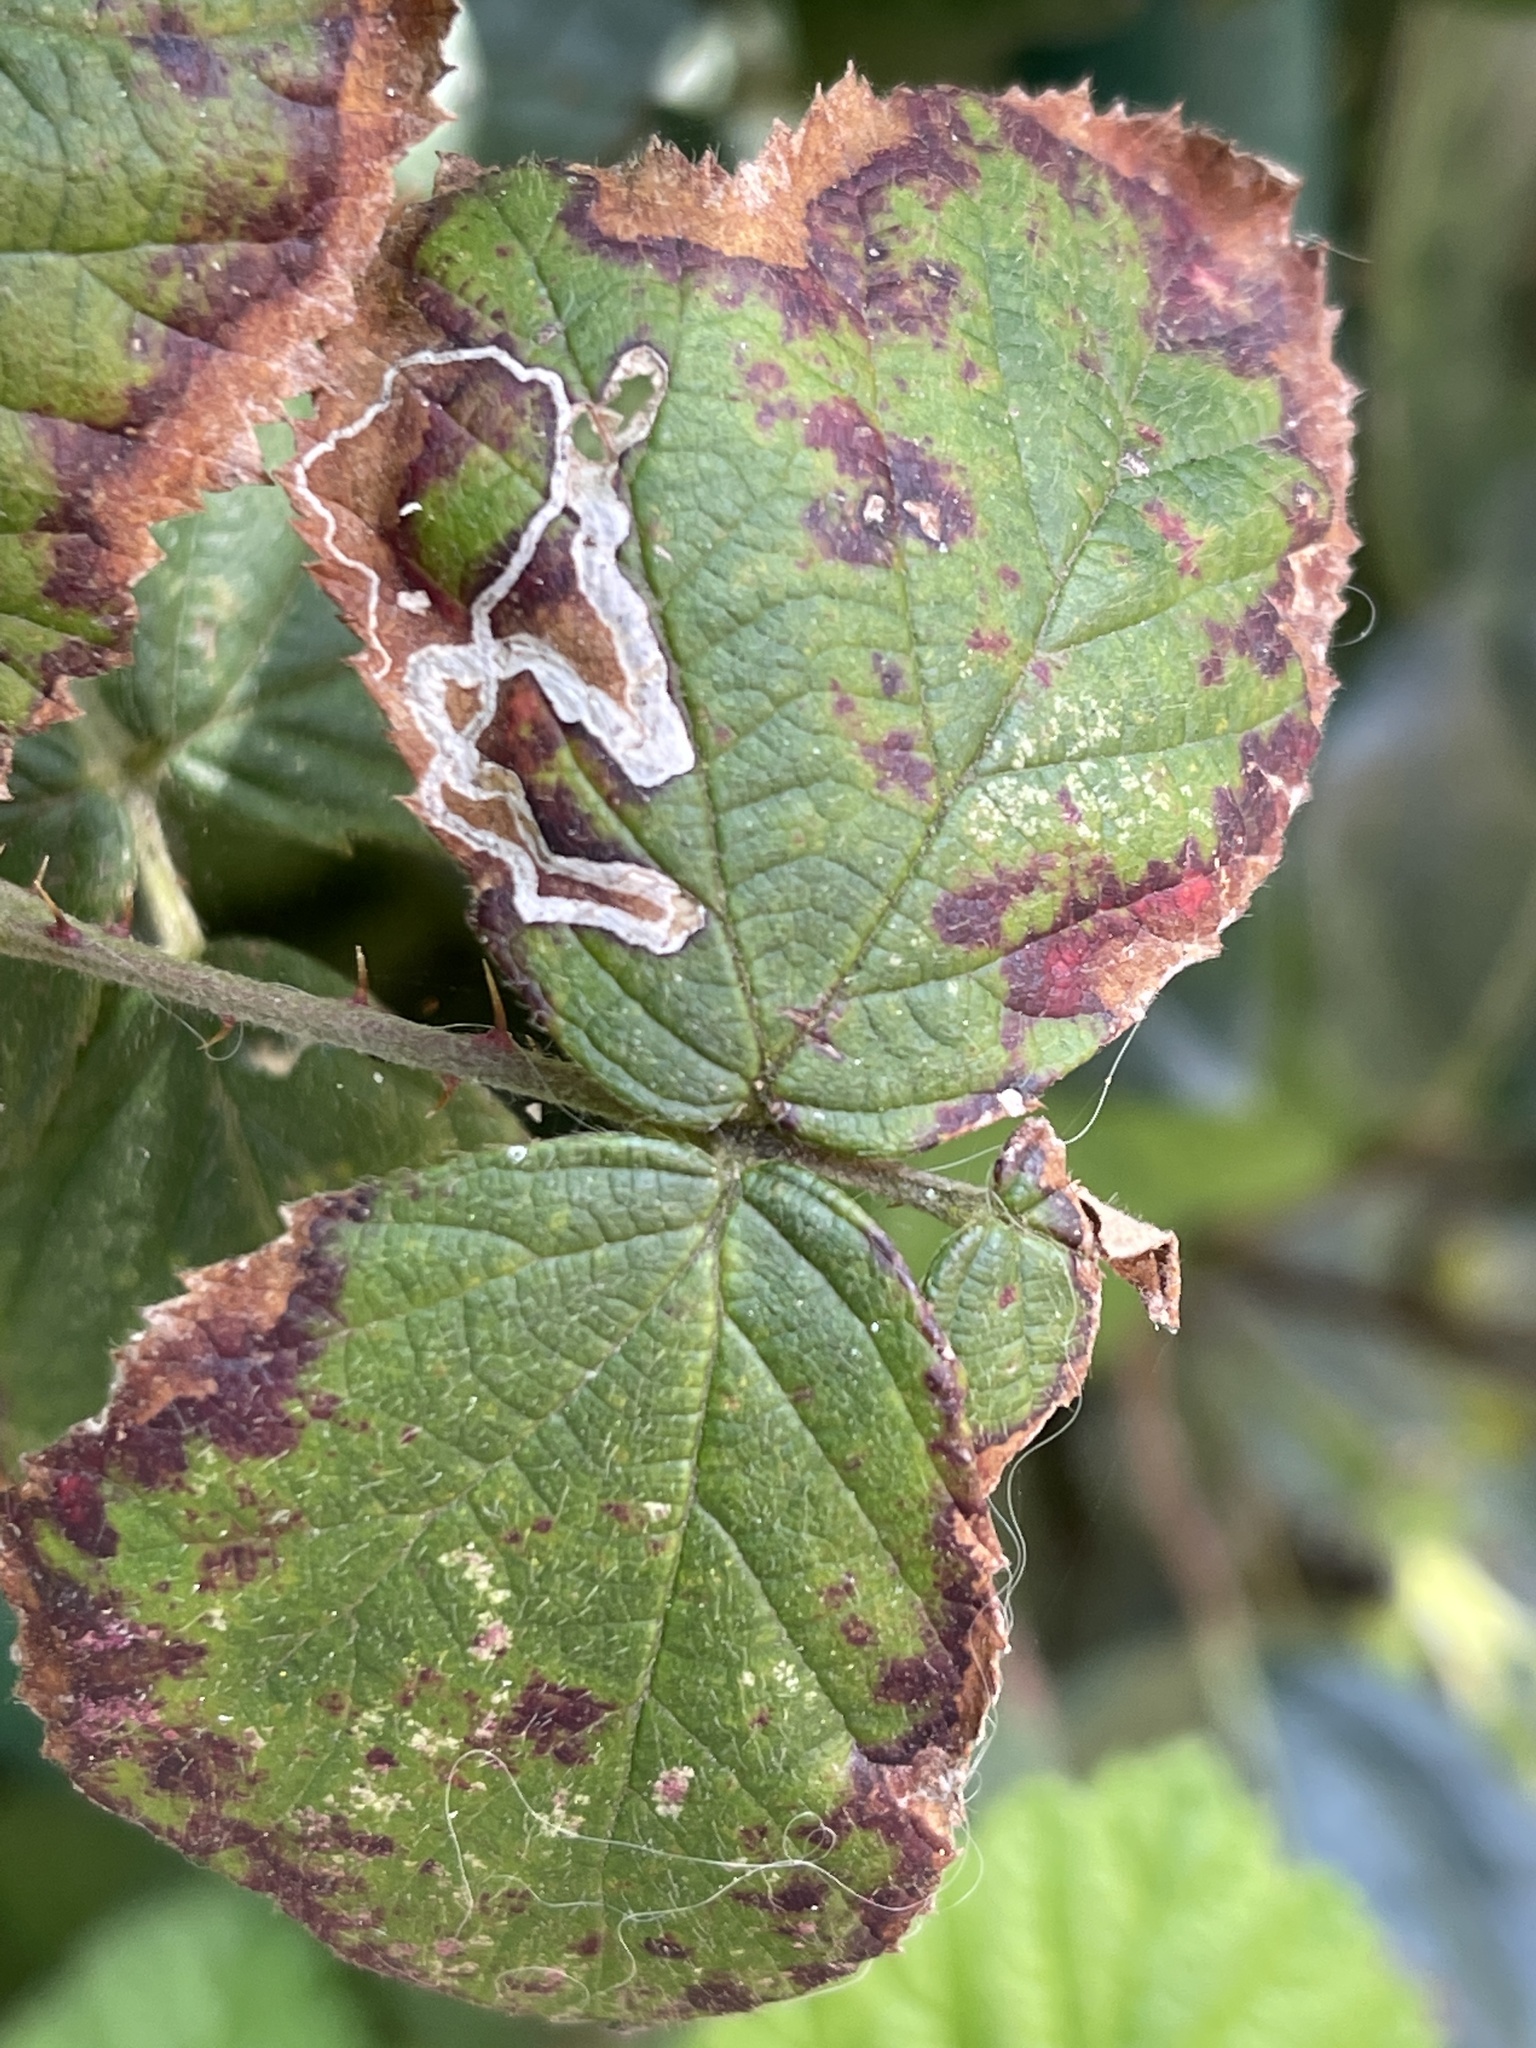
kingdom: Animalia
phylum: Arthropoda
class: Insecta
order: Lepidoptera
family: Nepticulidae
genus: Stigmella
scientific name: Stigmella aurella
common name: Golden pigmy
